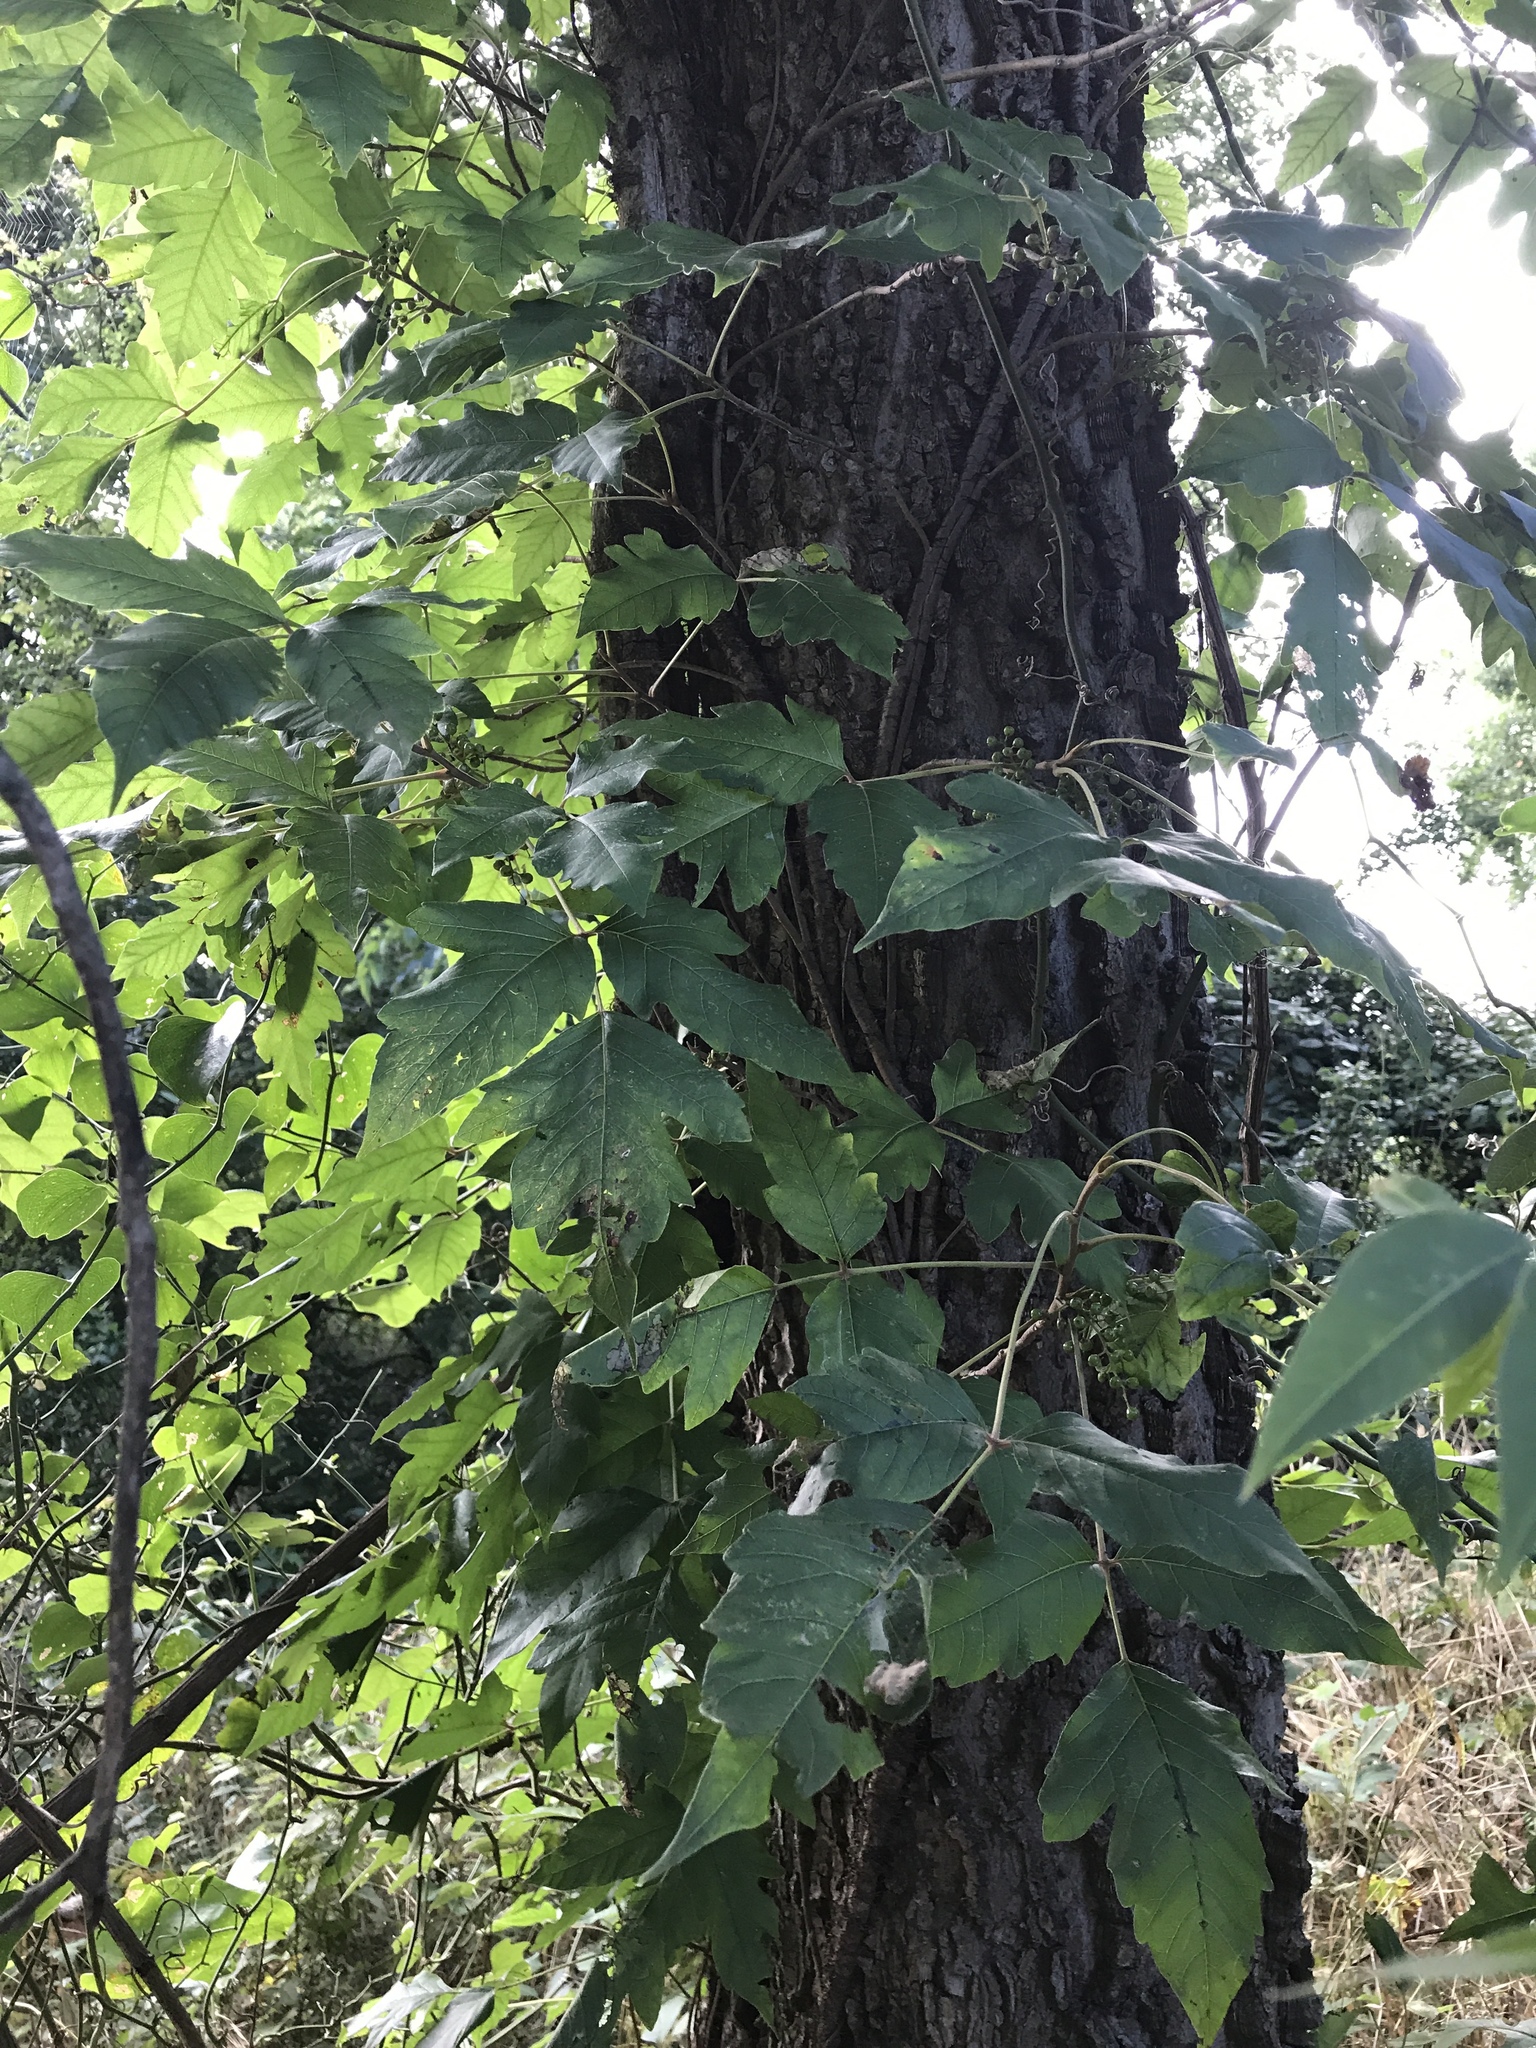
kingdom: Plantae
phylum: Tracheophyta
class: Magnoliopsida
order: Sapindales
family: Anacardiaceae
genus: Toxicodendron
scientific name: Toxicodendron radicans
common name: Poison ivy
